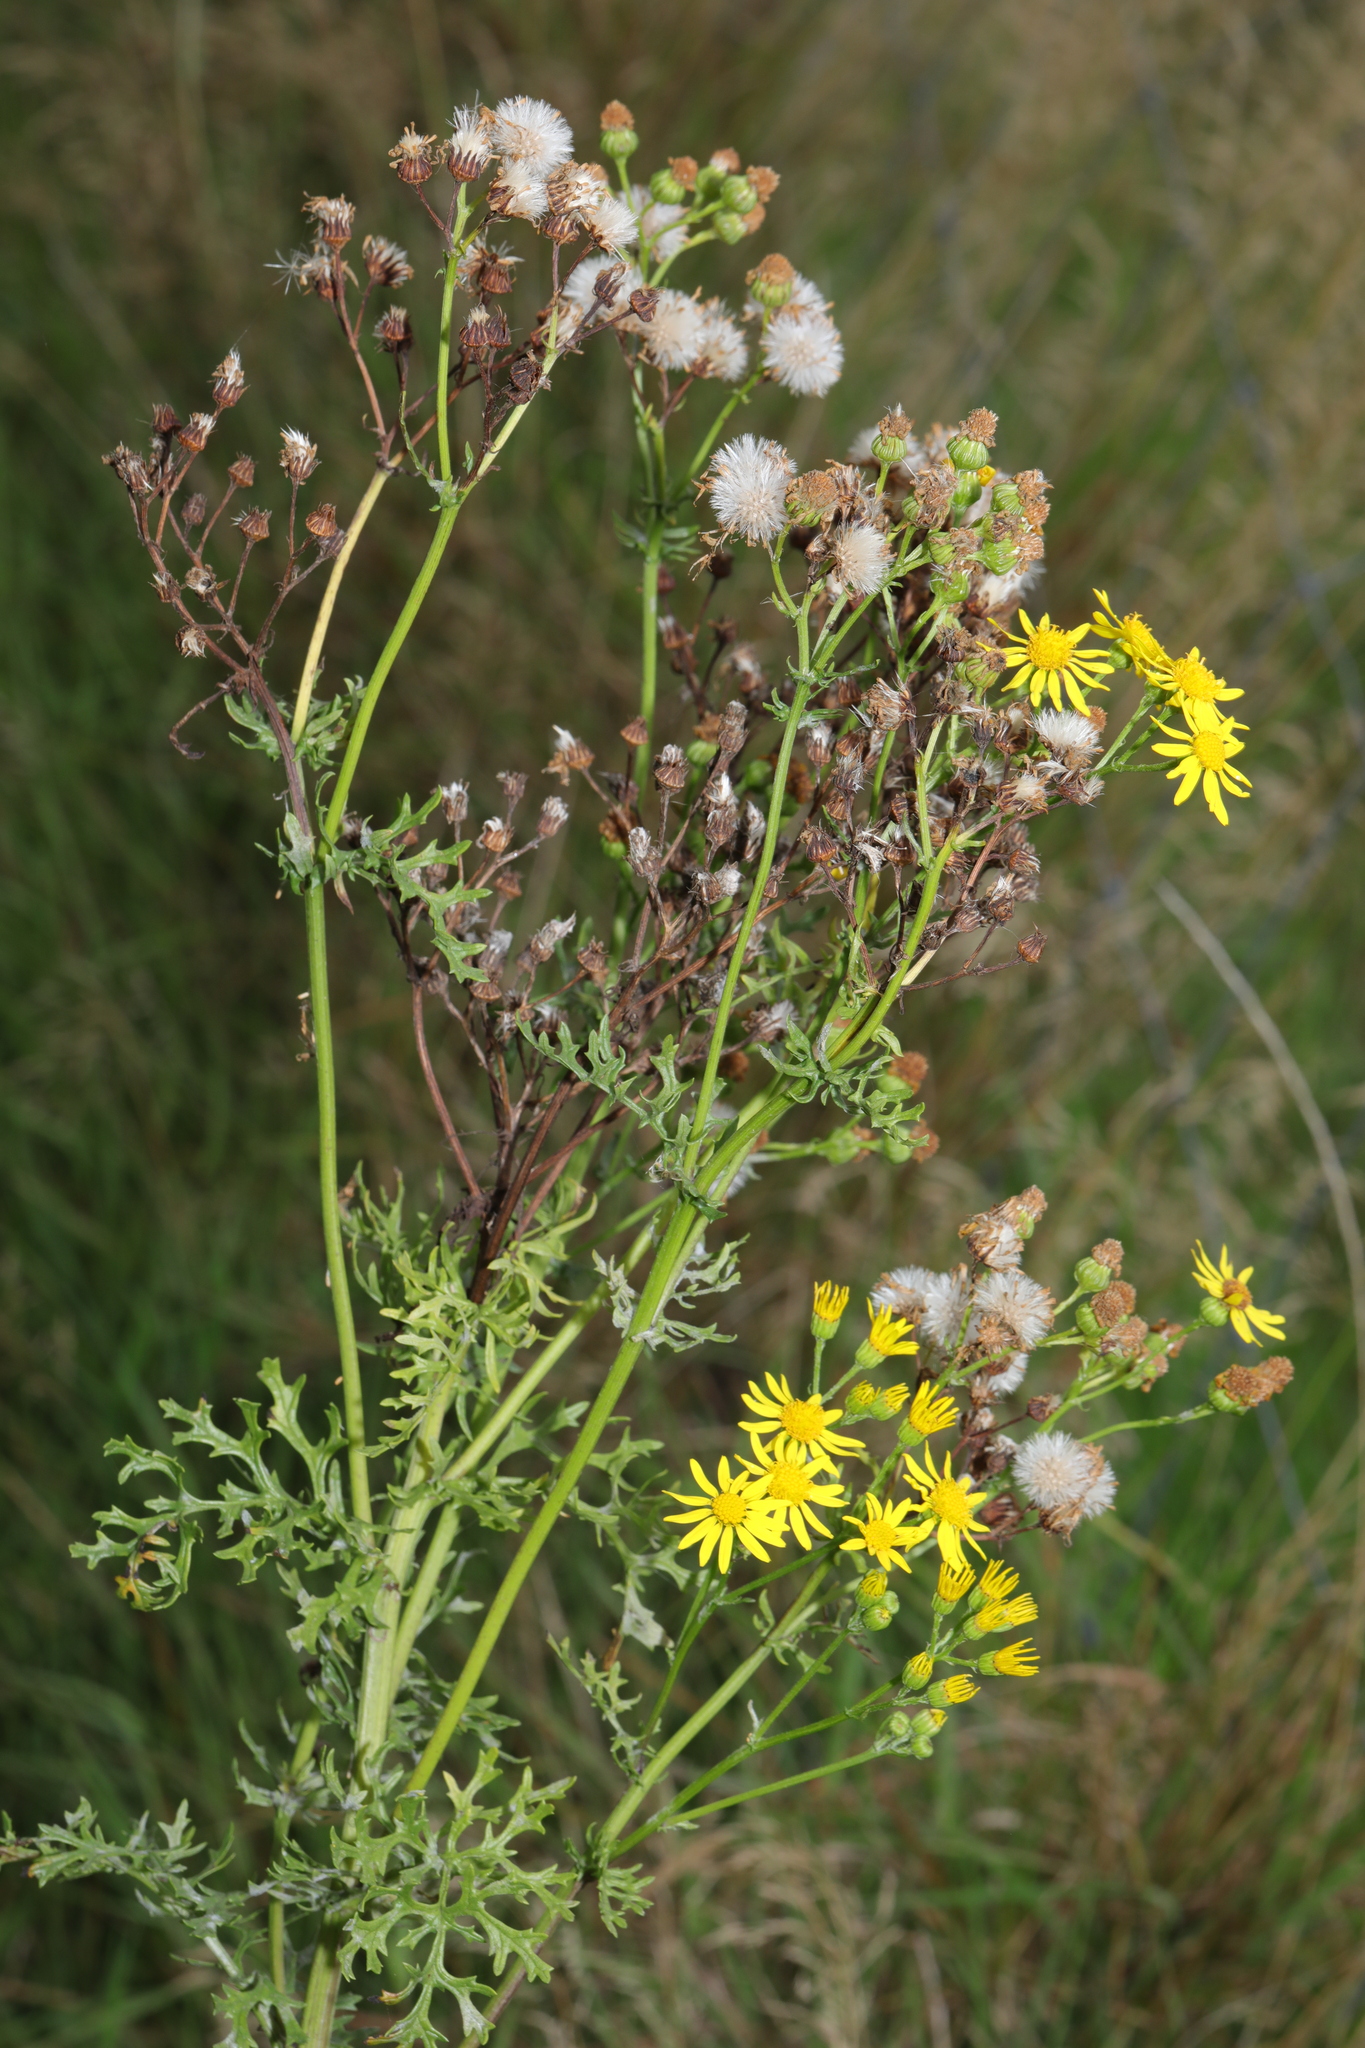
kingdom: Plantae
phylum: Tracheophyta
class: Magnoliopsida
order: Asterales
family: Asteraceae
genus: Jacobaea
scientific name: Jacobaea vulgaris
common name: Stinking willie
